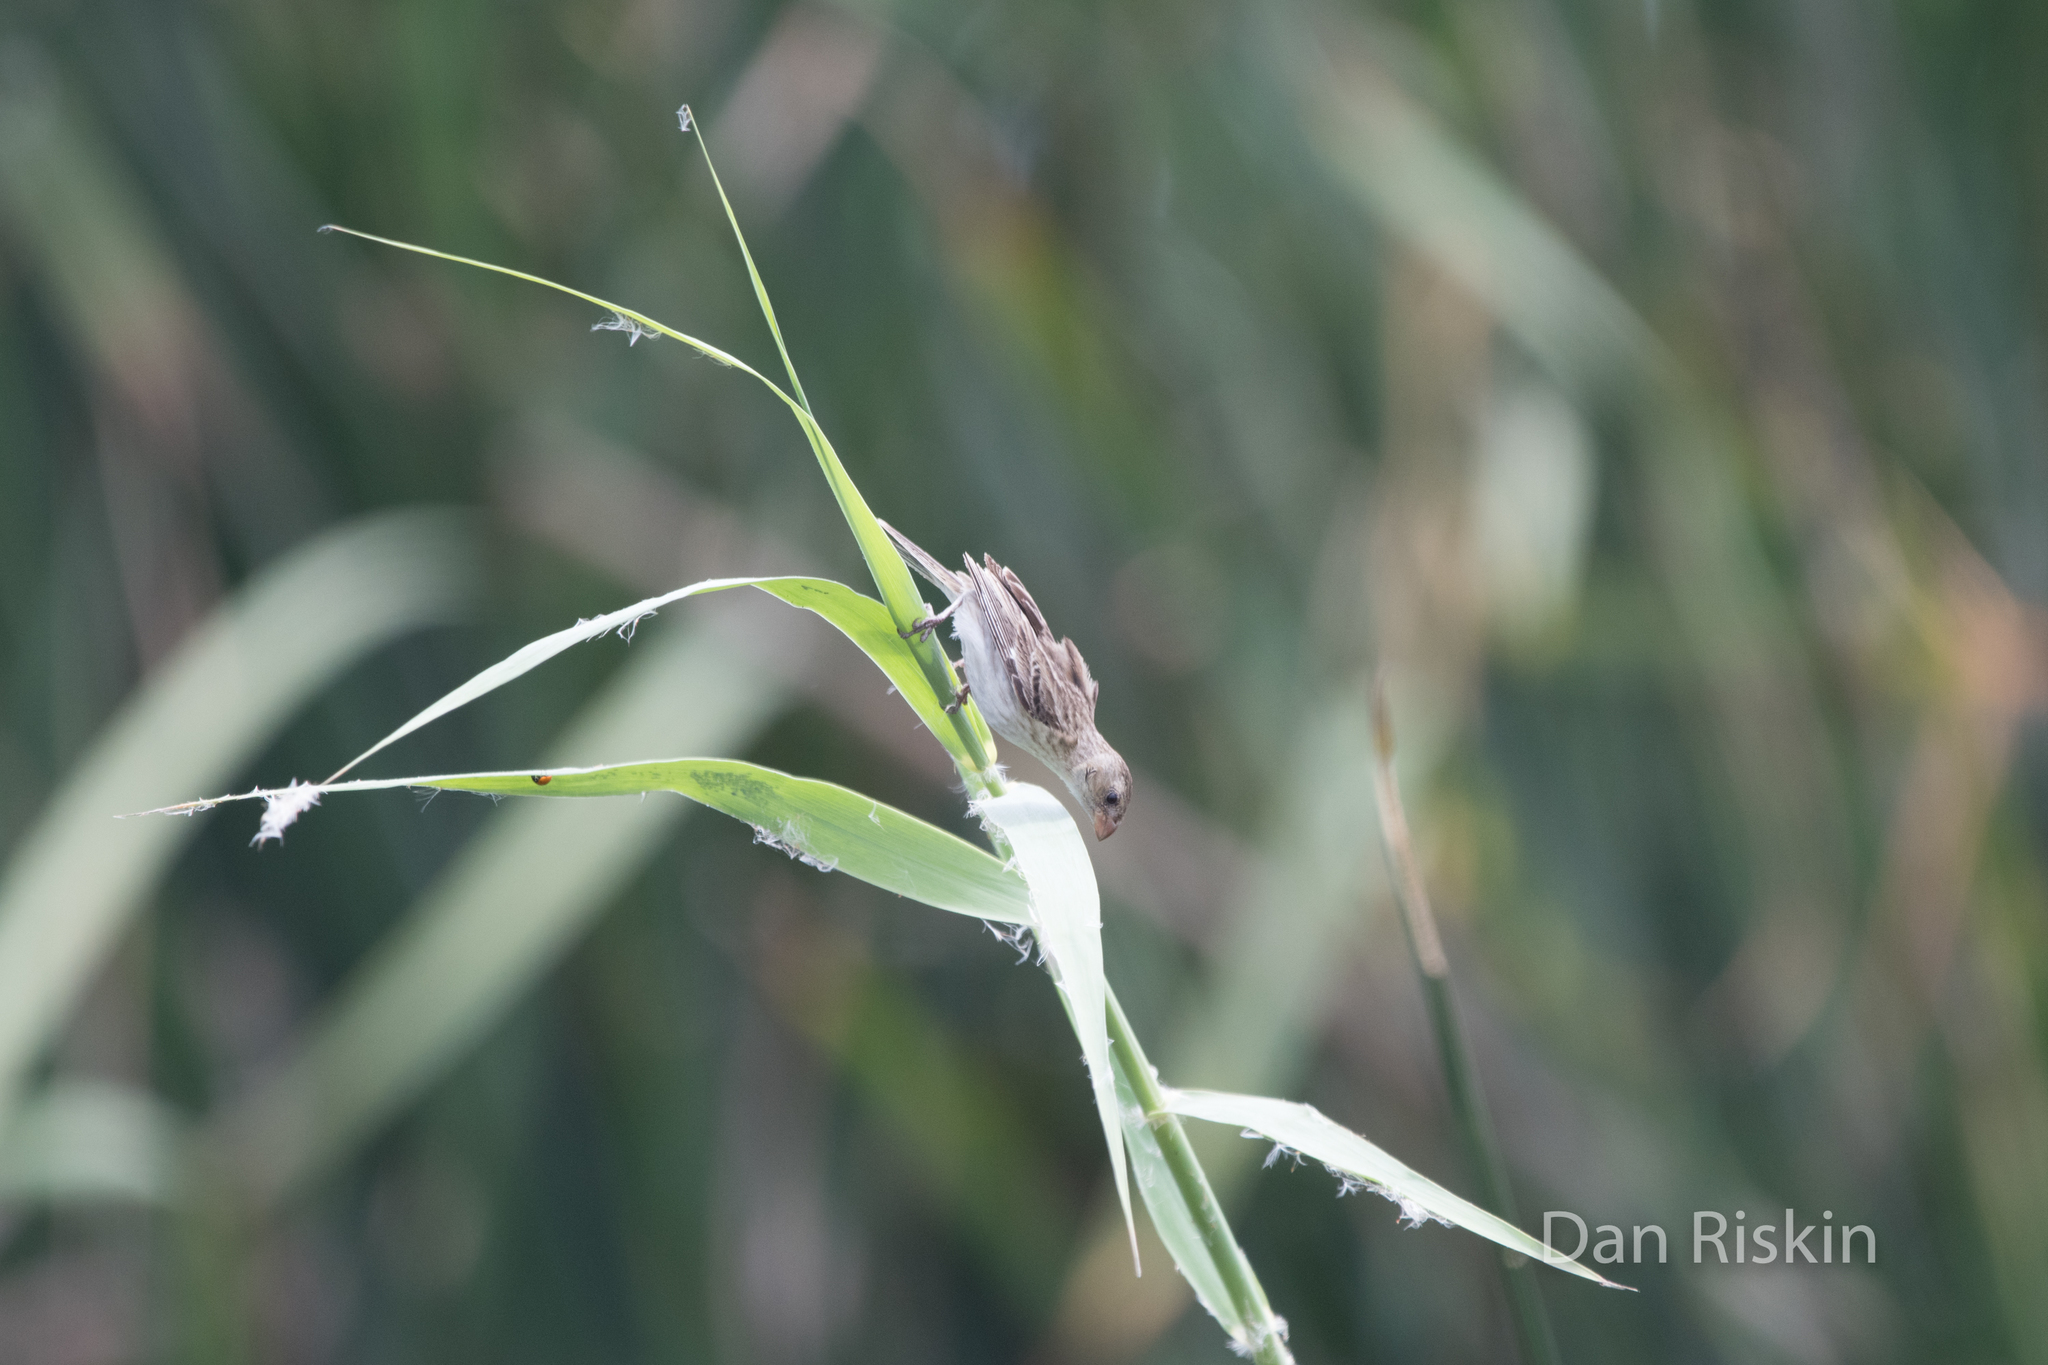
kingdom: Animalia
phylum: Chordata
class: Aves
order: Passeriformes
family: Thraupidae
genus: Sporophila
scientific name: Sporophila telasco
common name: Chestnut-throated seedeater
